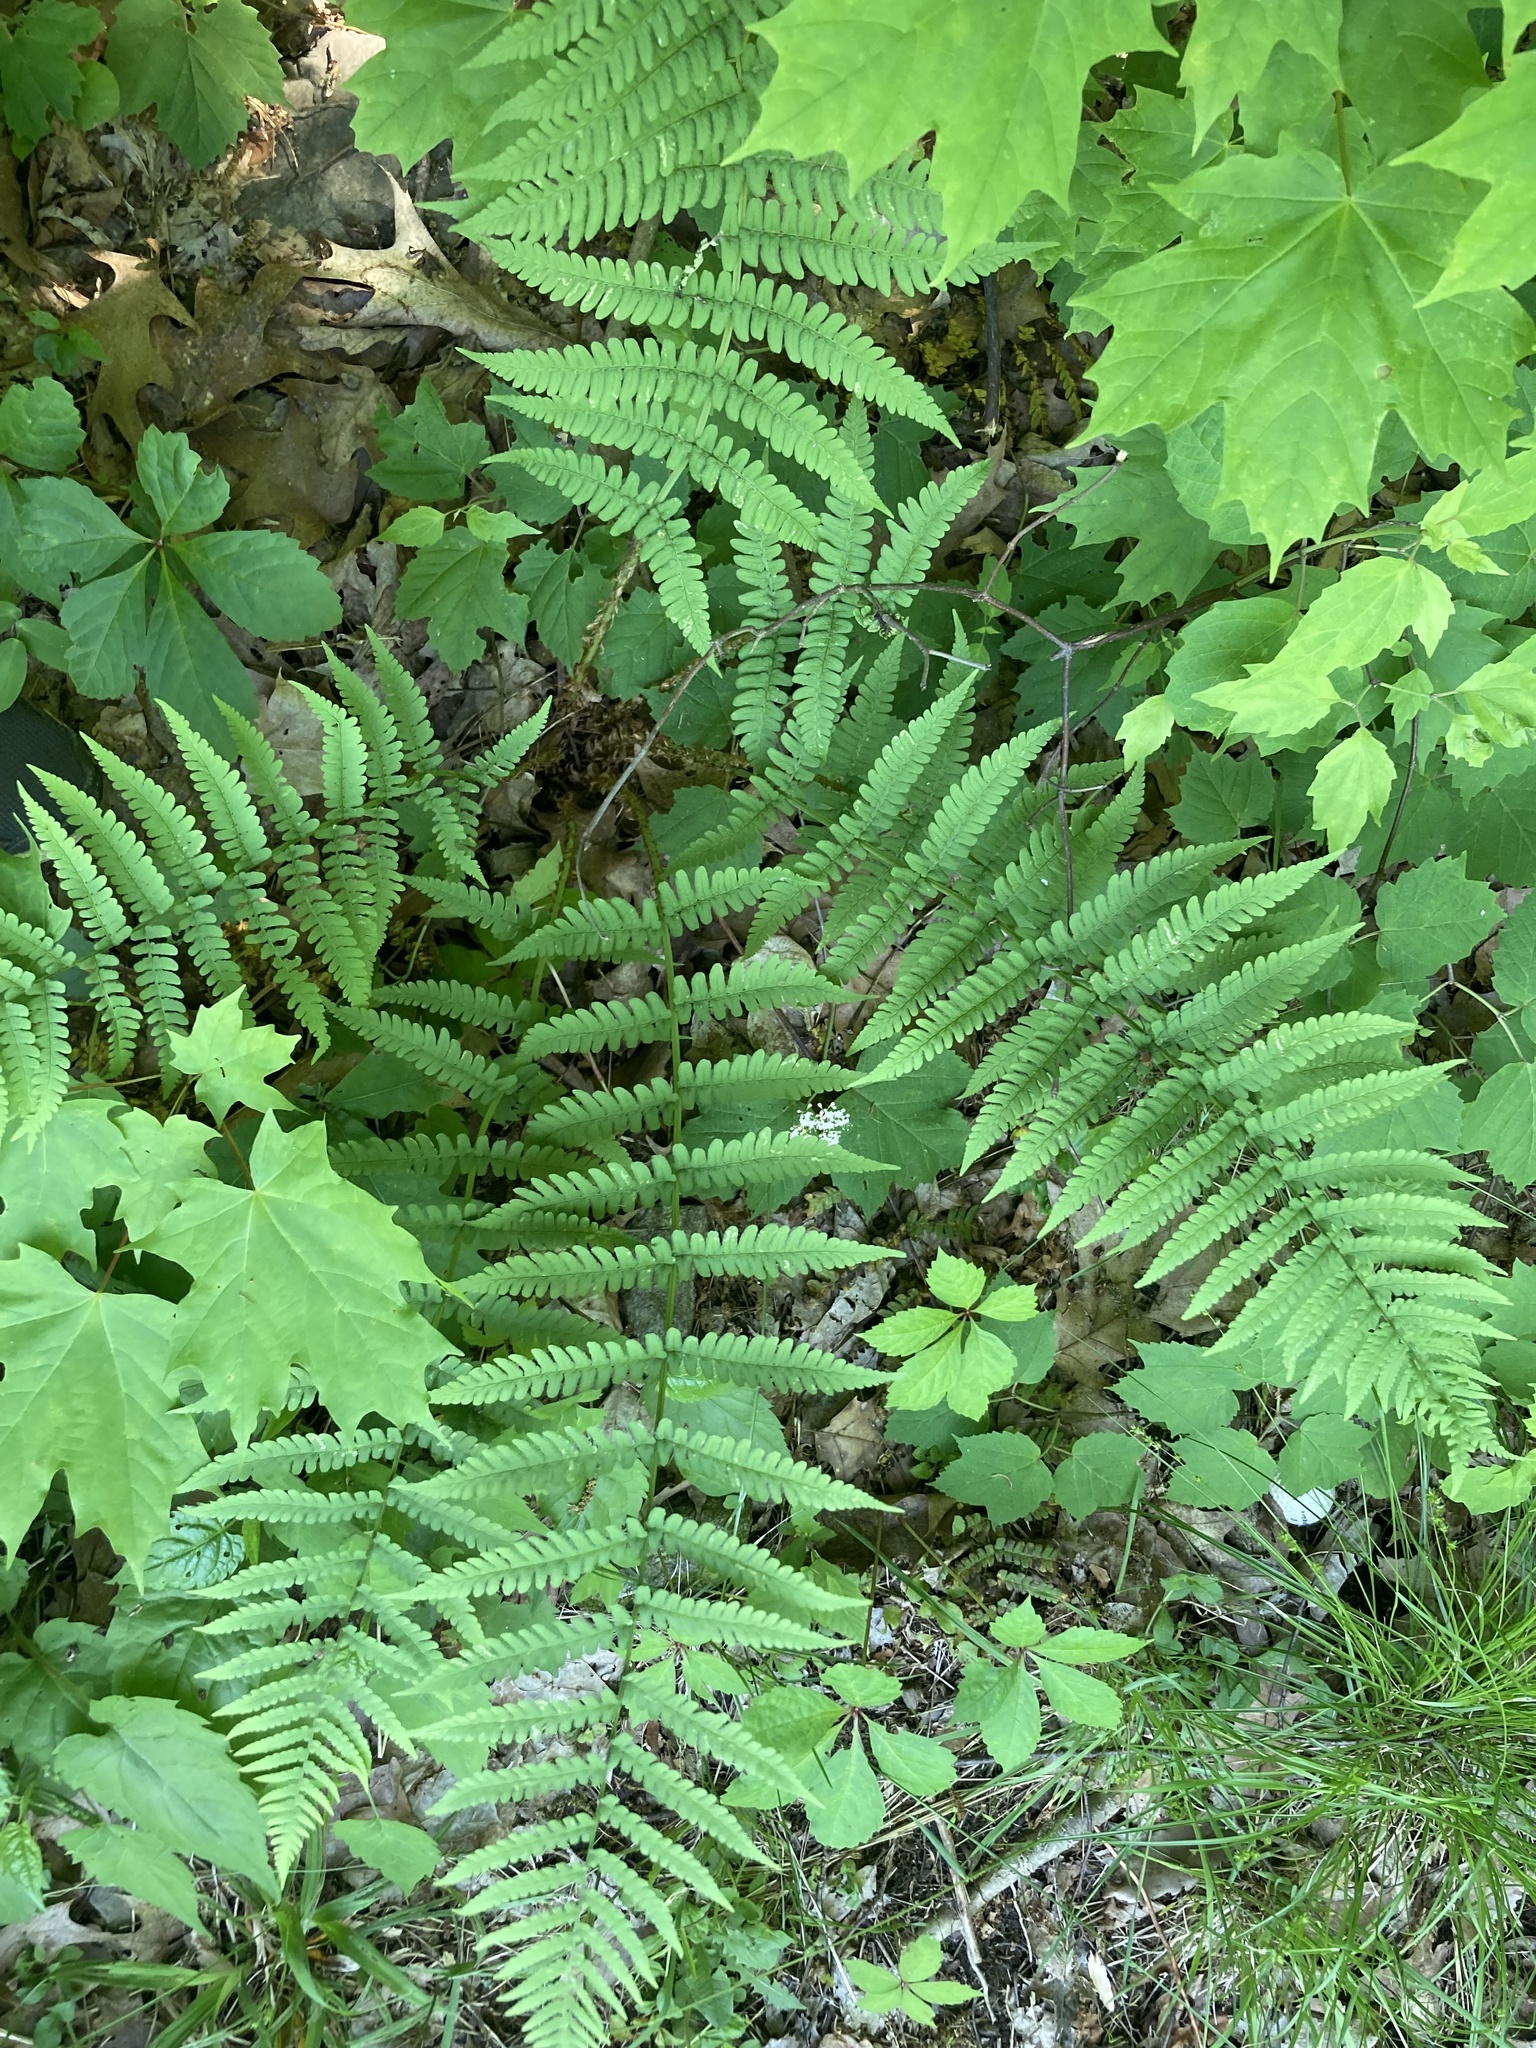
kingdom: Plantae
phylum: Tracheophyta
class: Polypodiopsida
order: Polypodiales
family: Dryopteridaceae
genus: Dryopteris
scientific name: Dryopteris marginalis
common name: Marginal wood fern
